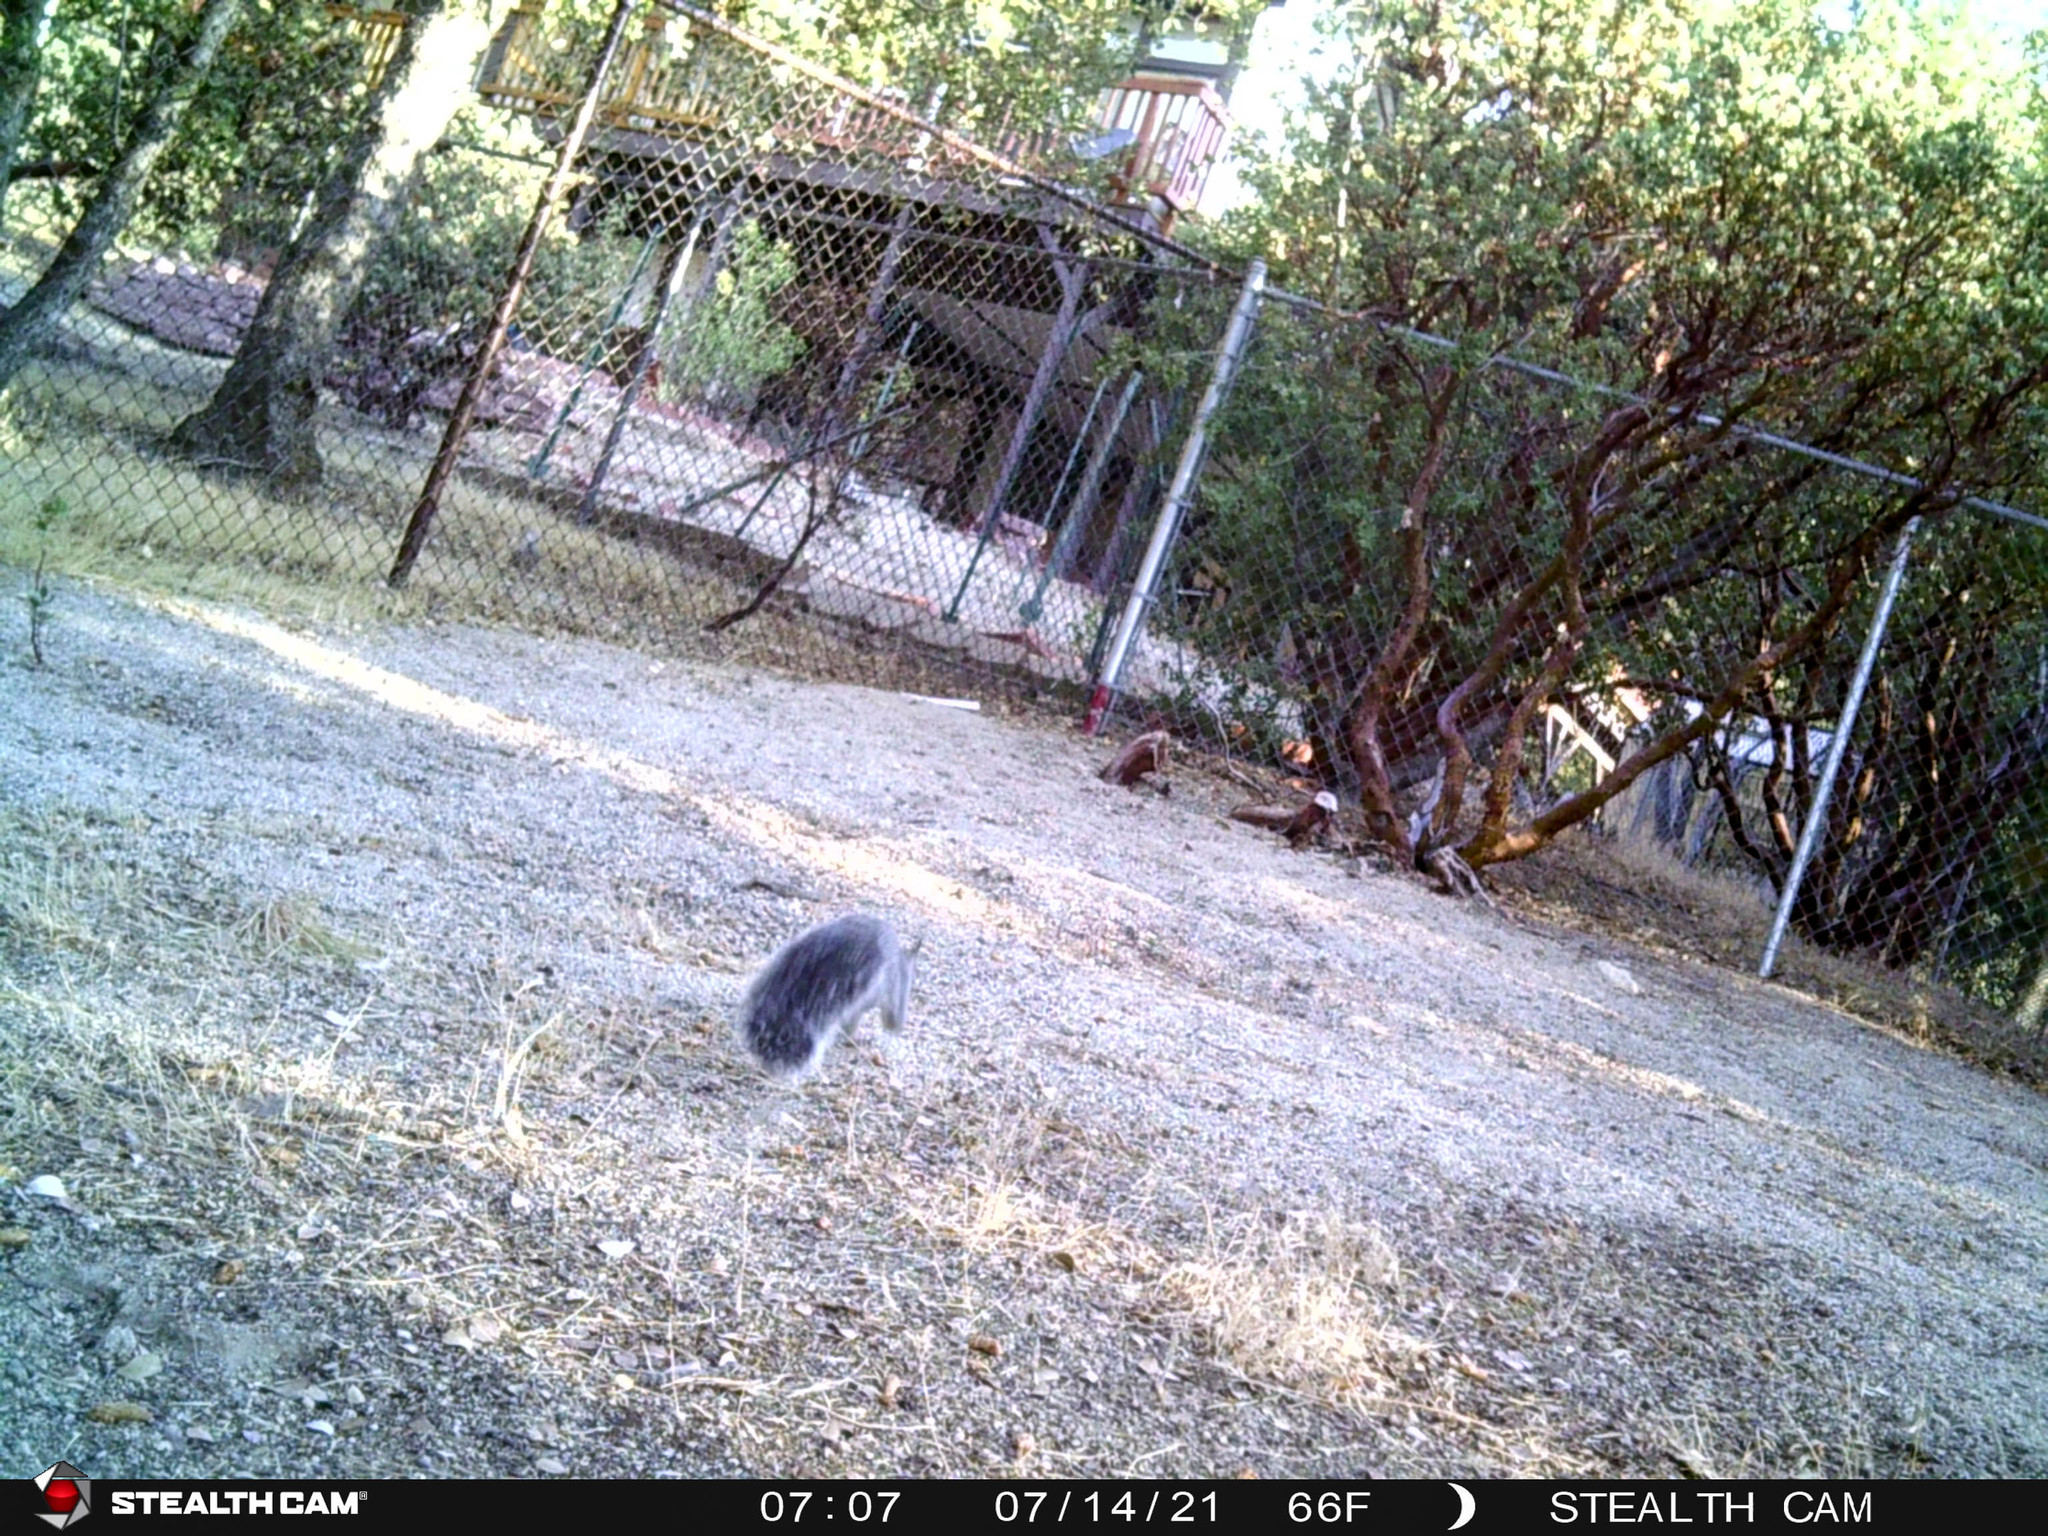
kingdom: Animalia
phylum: Chordata
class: Mammalia
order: Rodentia
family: Sciuridae
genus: Sciurus
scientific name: Sciurus griseus
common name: Western gray squirrel
